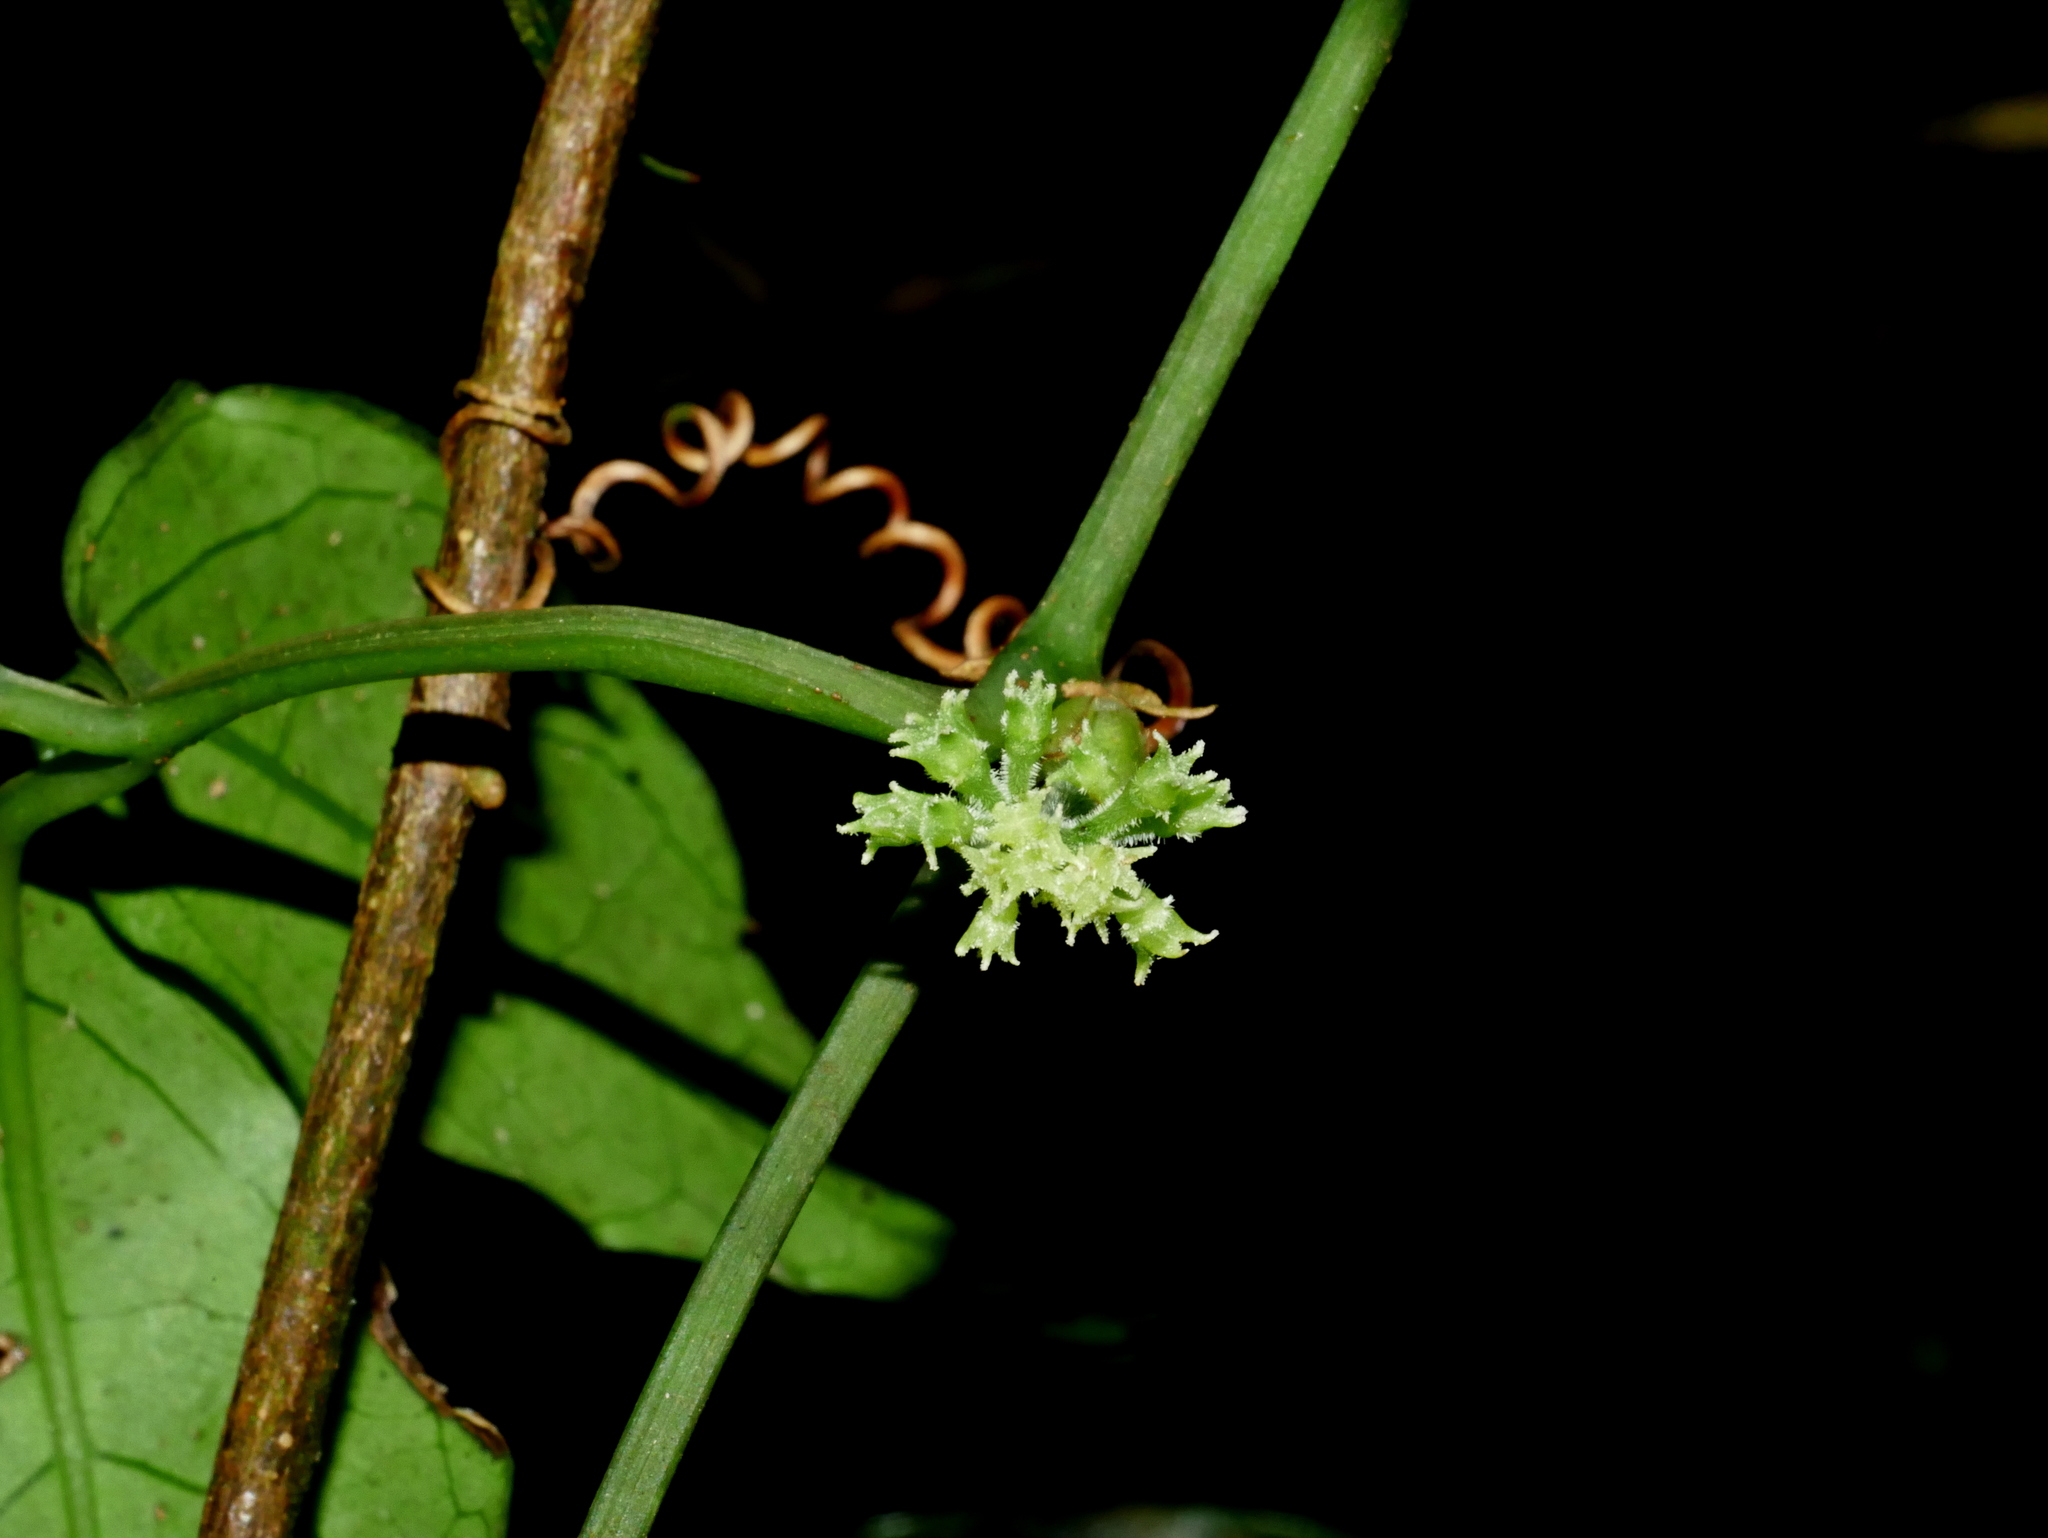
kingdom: Plantae
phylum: Tracheophyta
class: Magnoliopsida
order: Vitales
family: Vitaceae
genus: Tetrastigma
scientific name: Tetrastigma hemsleyanum
